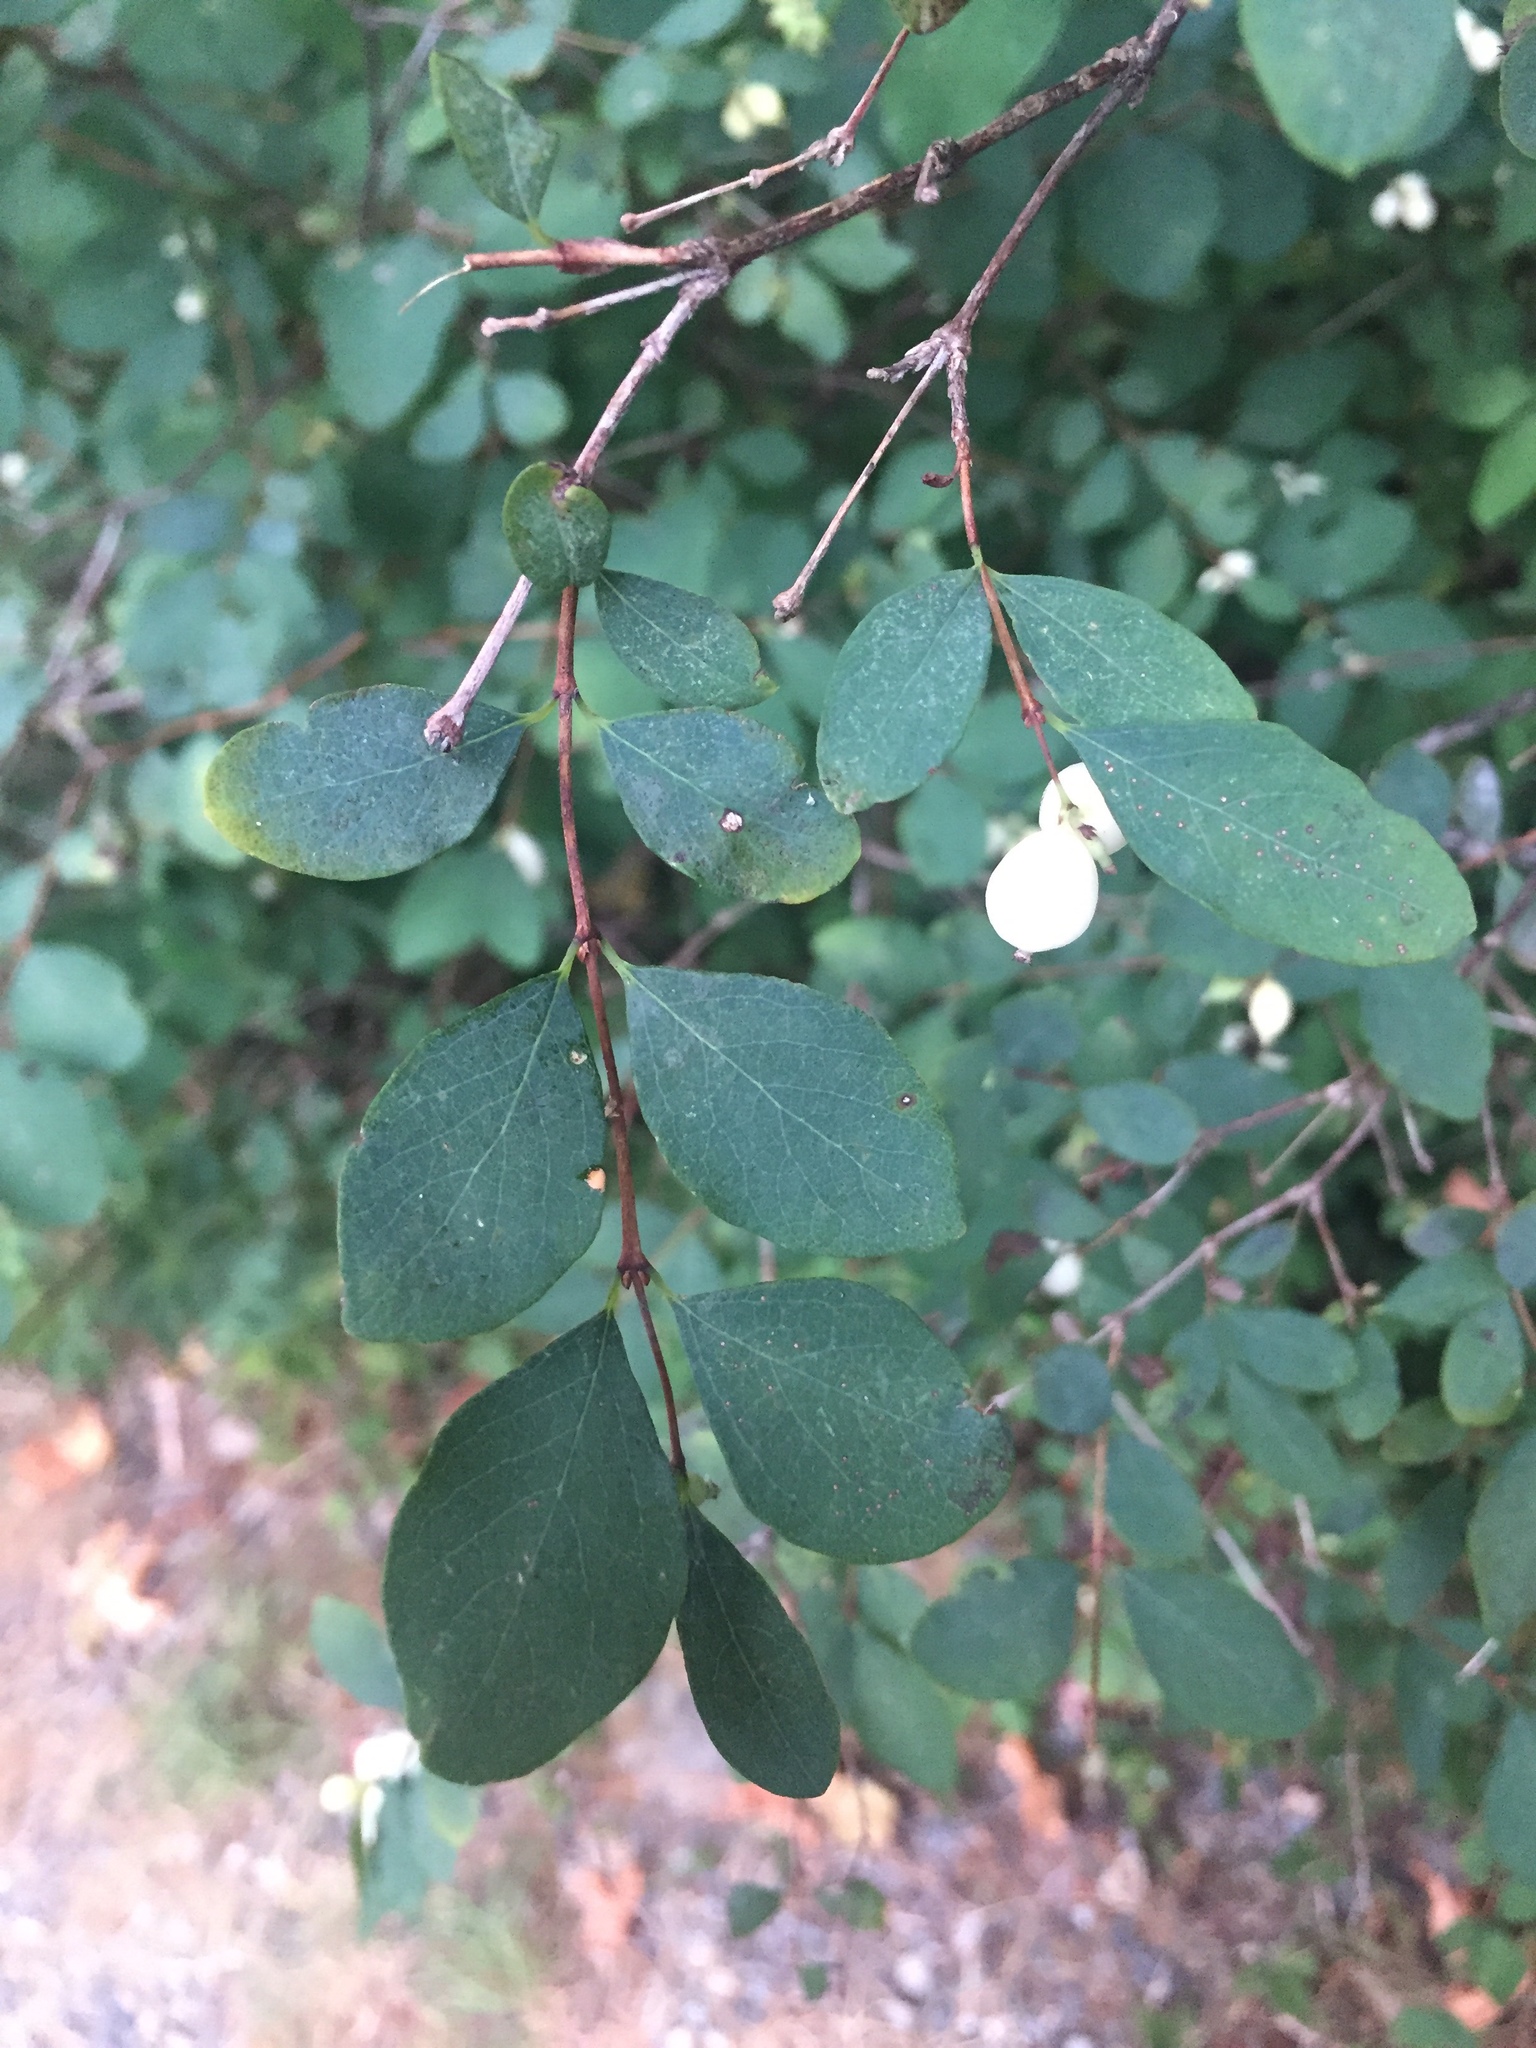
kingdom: Plantae
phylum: Tracheophyta
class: Magnoliopsida
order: Dipsacales
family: Caprifoliaceae
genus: Symphoricarpos
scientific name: Symphoricarpos albus
